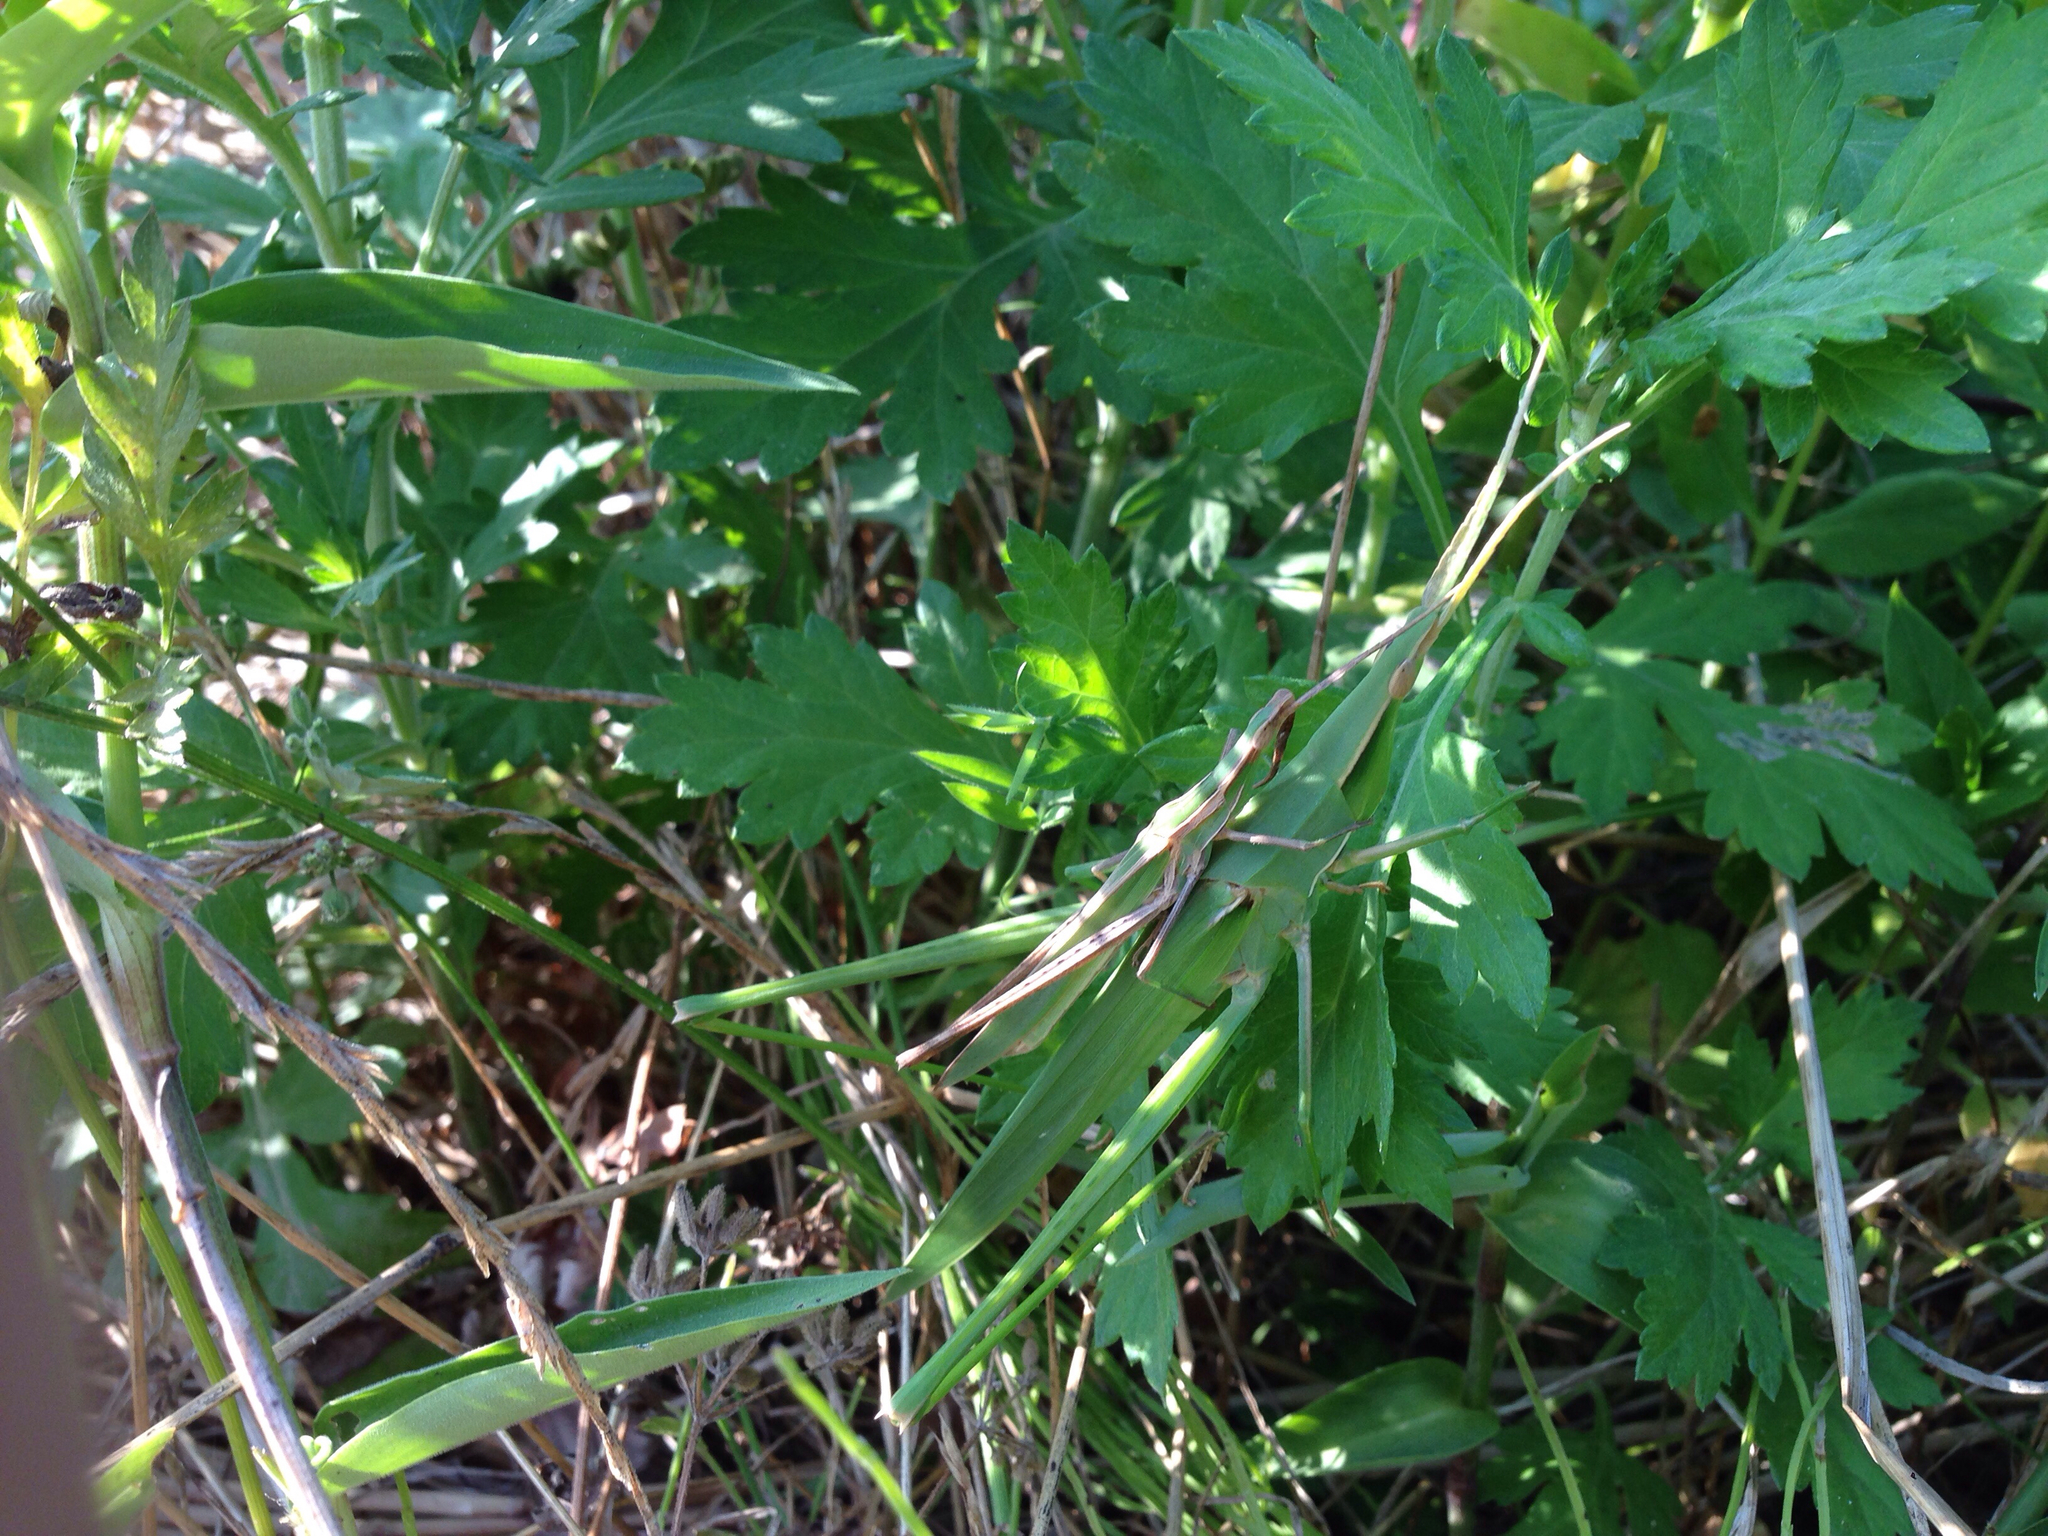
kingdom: Animalia
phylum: Arthropoda
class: Insecta
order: Orthoptera
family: Acrididae
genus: Acrida
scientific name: Acrida cinerea
